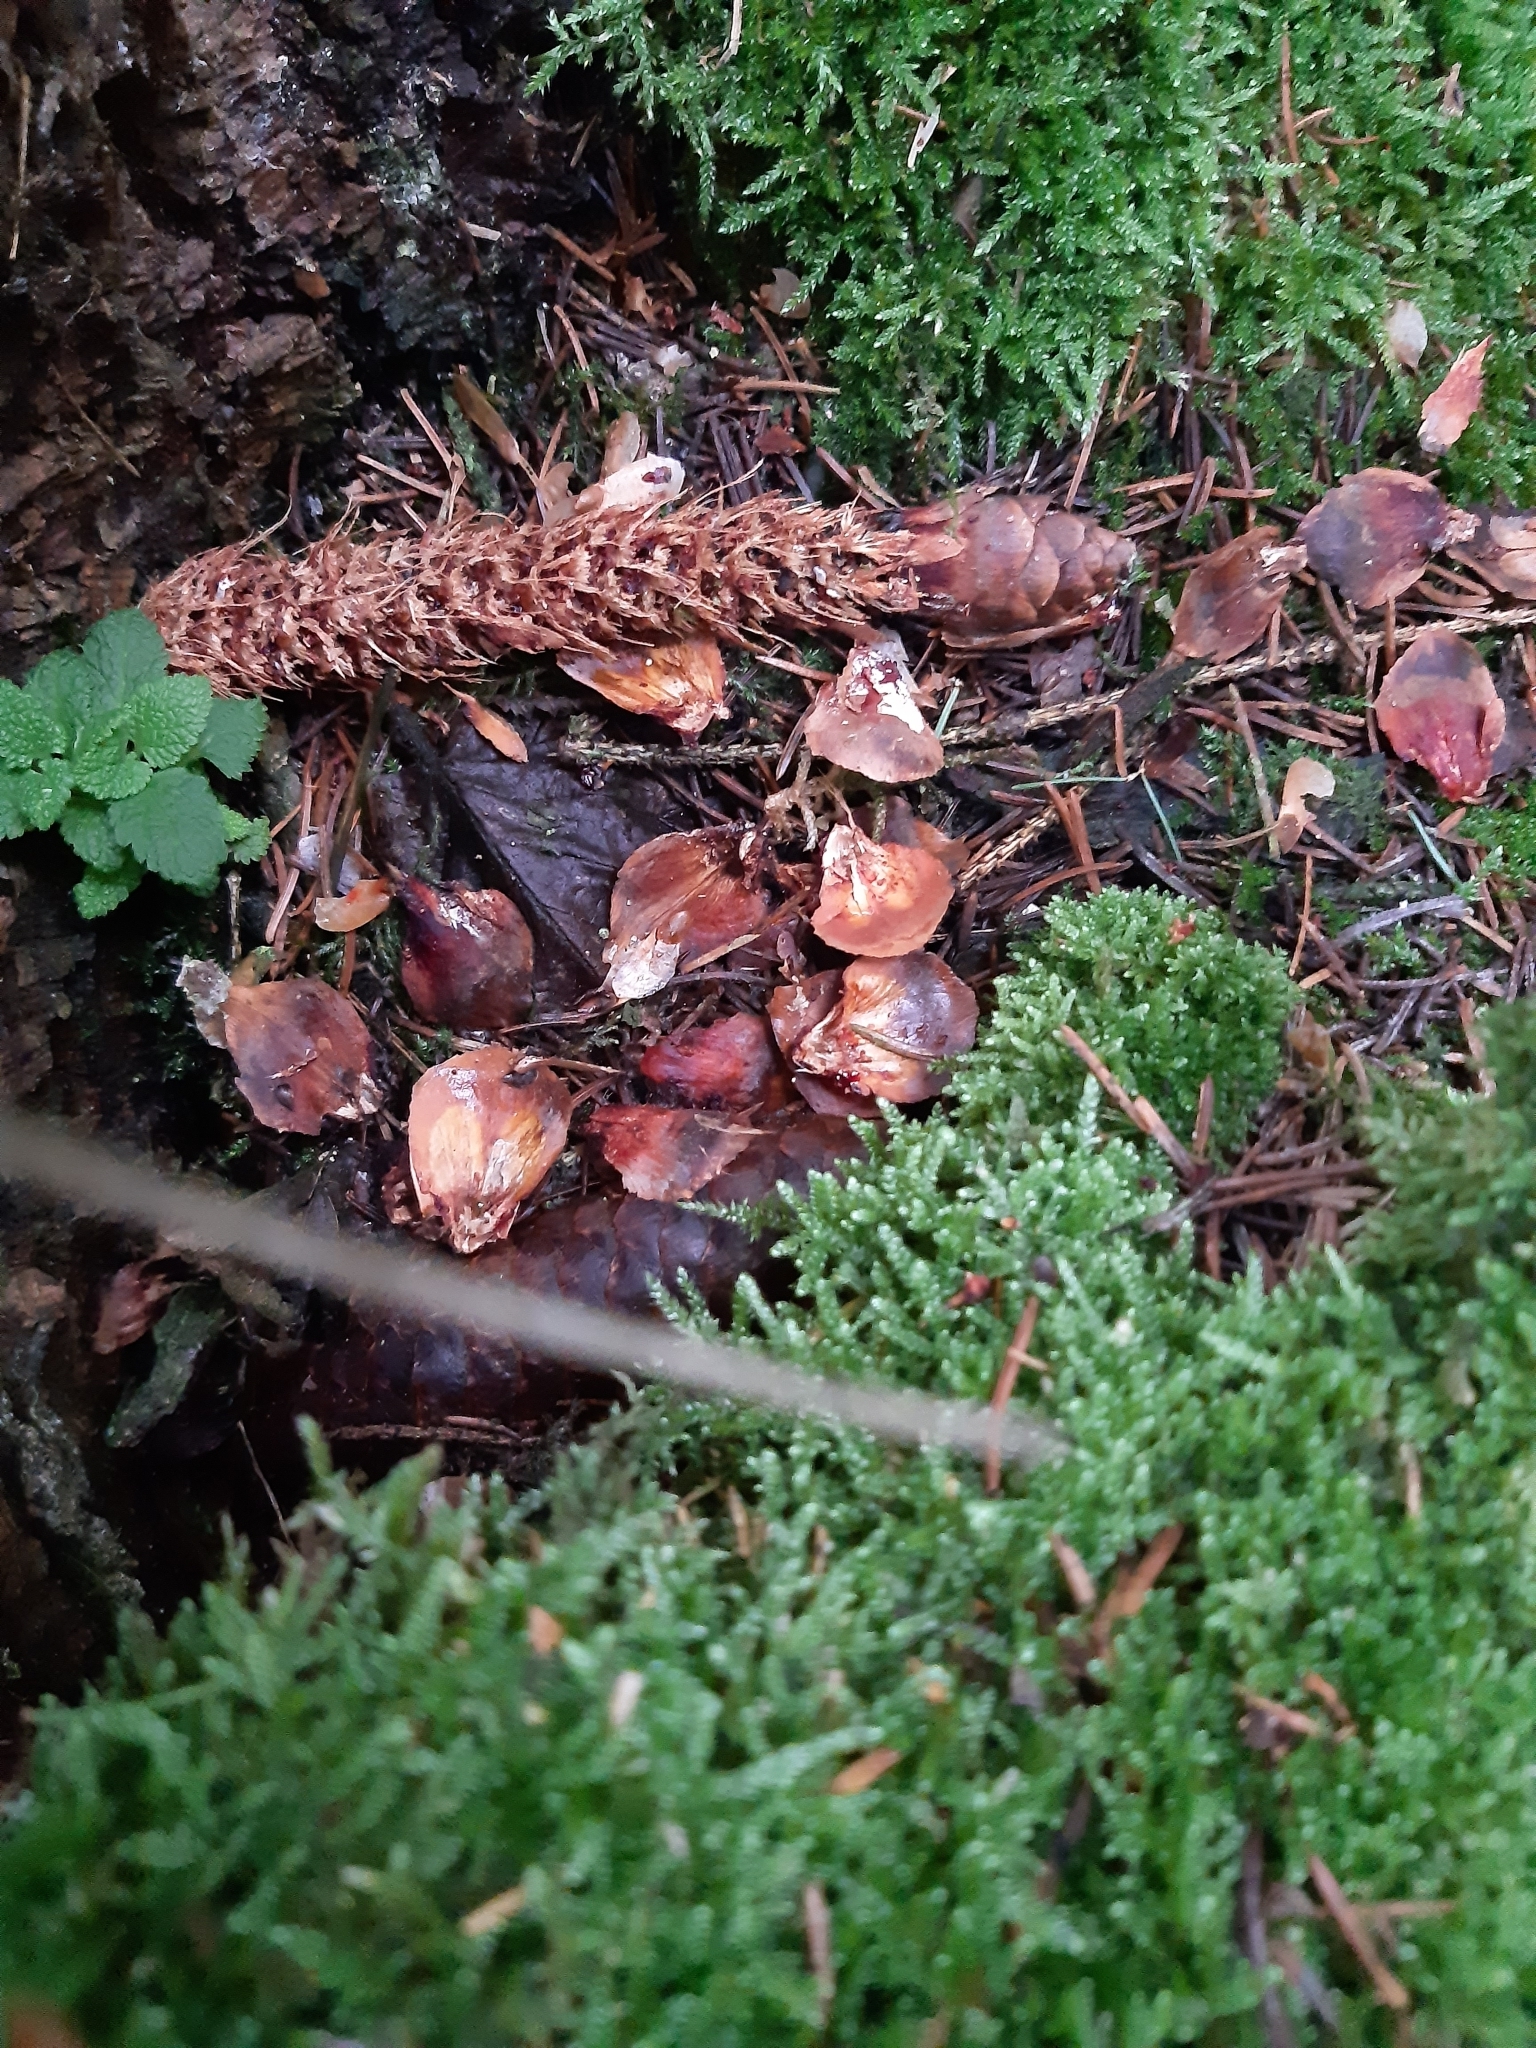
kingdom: Animalia
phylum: Chordata
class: Mammalia
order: Rodentia
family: Sciuridae
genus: Sciurus
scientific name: Sciurus vulgaris
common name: Eurasian red squirrel
